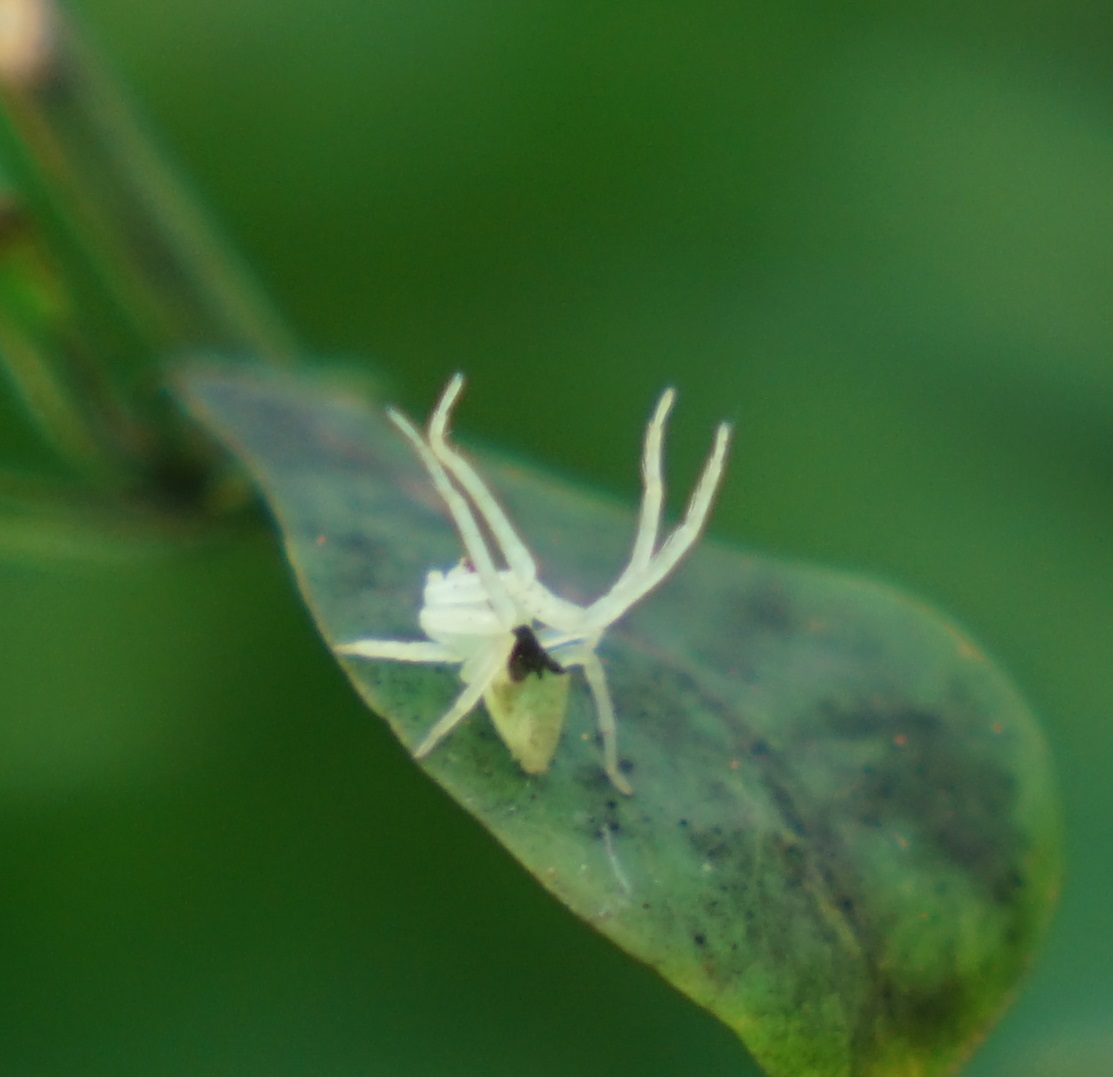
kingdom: Animalia
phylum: Arthropoda
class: Arachnida
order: Araneae
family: Thomisidae
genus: Sidymella
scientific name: Sidymella rubrosignata
